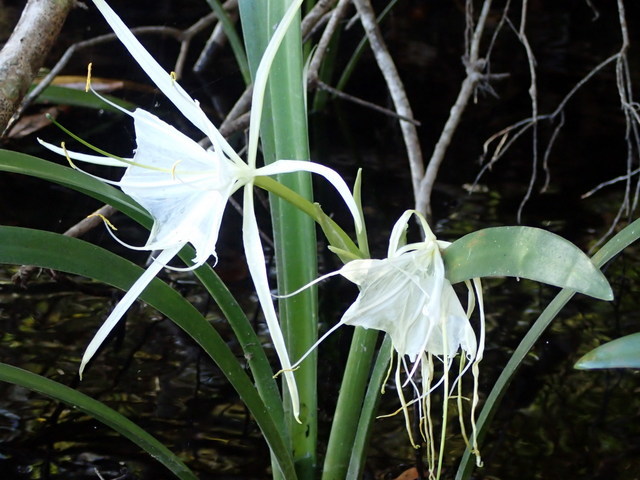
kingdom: Plantae
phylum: Tracheophyta
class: Liliopsida
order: Asparagales
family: Amaryllidaceae
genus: Hymenocallis
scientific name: Hymenocallis rotata
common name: Spring-run spider-lily
